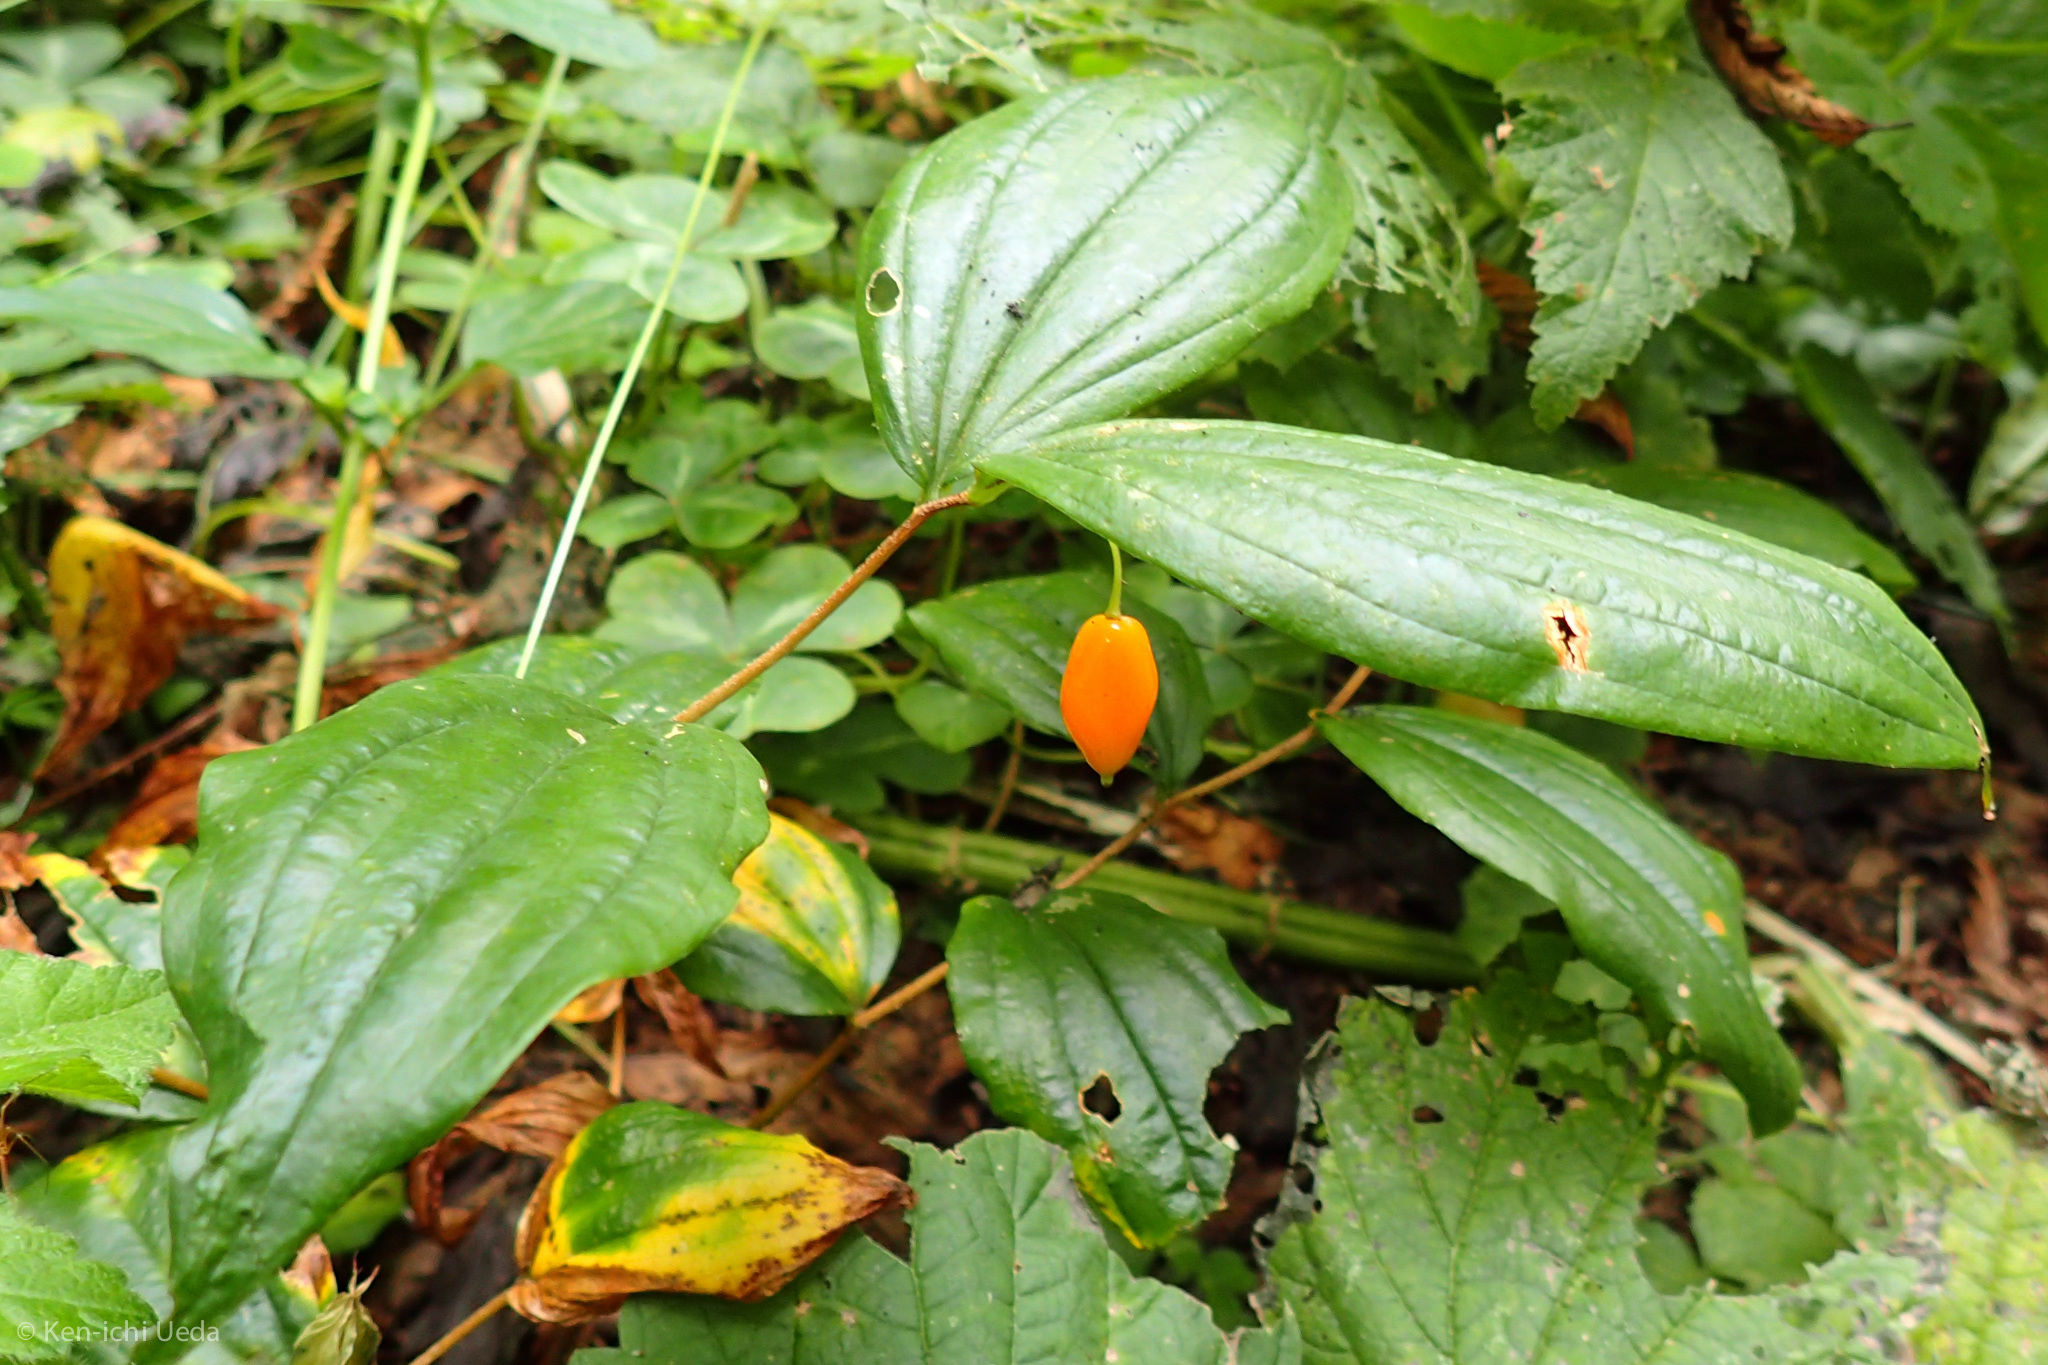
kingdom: Plantae
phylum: Tracheophyta
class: Liliopsida
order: Liliales
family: Liliaceae
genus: Prosartes
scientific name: Prosartes smithii
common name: Fairy-lantern
